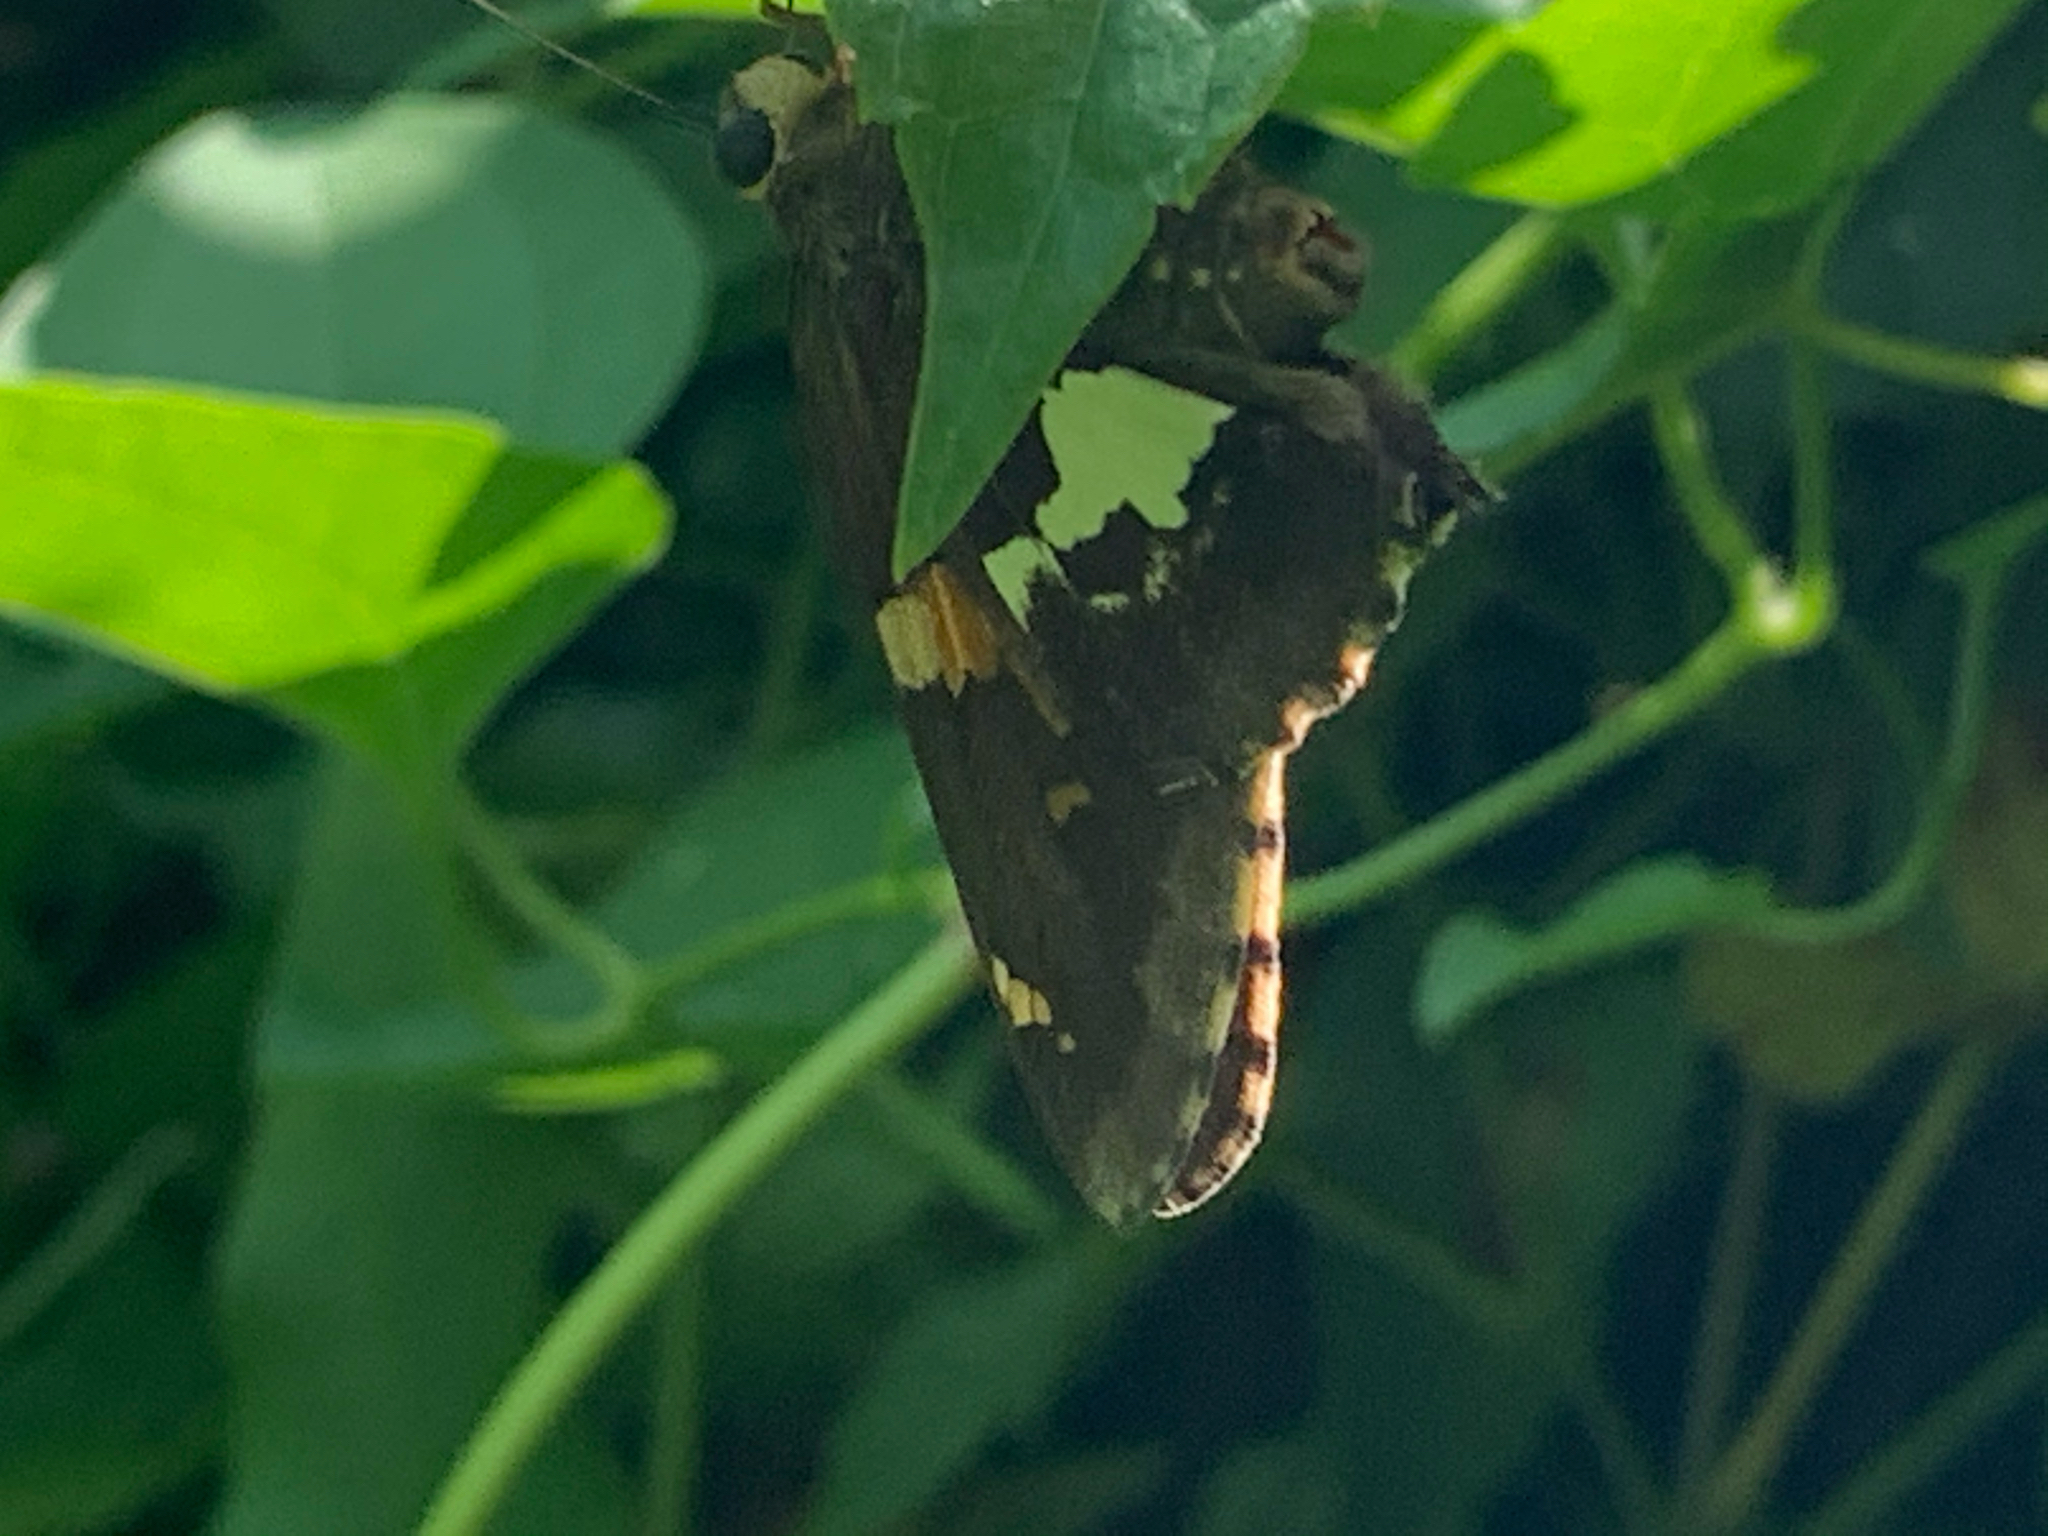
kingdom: Animalia
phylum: Arthropoda
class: Insecta
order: Lepidoptera
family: Hesperiidae
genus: Epargyreus
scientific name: Epargyreus clarus
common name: Silver-spotted skipper
